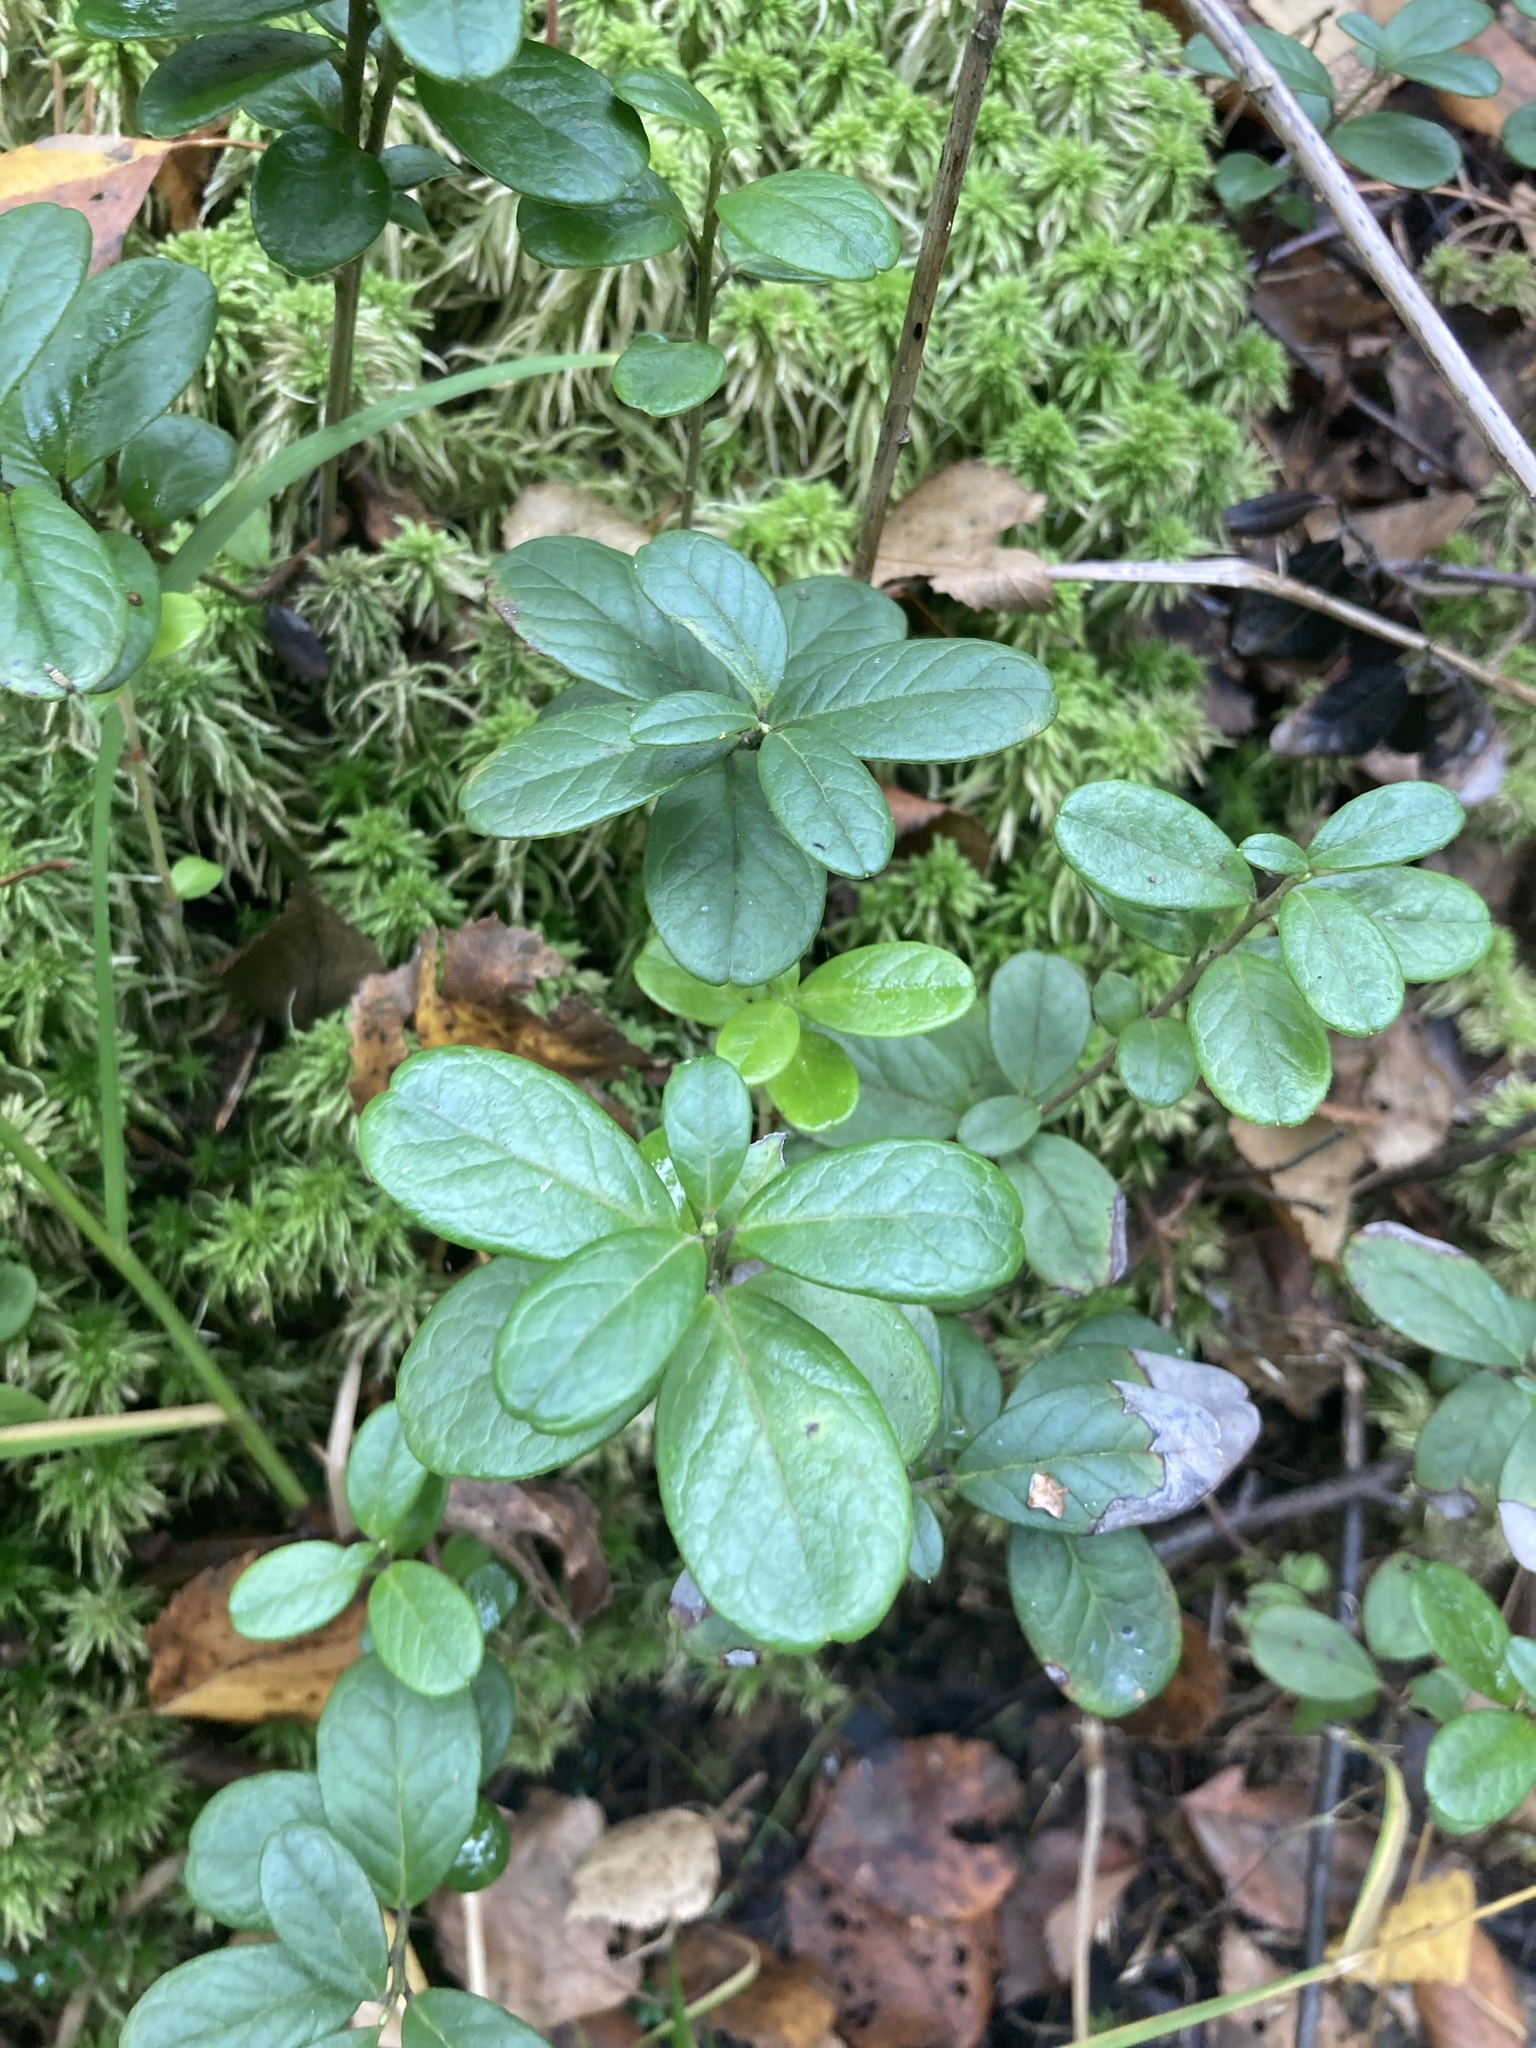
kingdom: Plantae
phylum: Tracheophyta
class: Magnoliopsida
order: Ericales
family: Ericaceae
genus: Vaccinium
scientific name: Vaccinium vitis-idaea
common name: Cowberry
